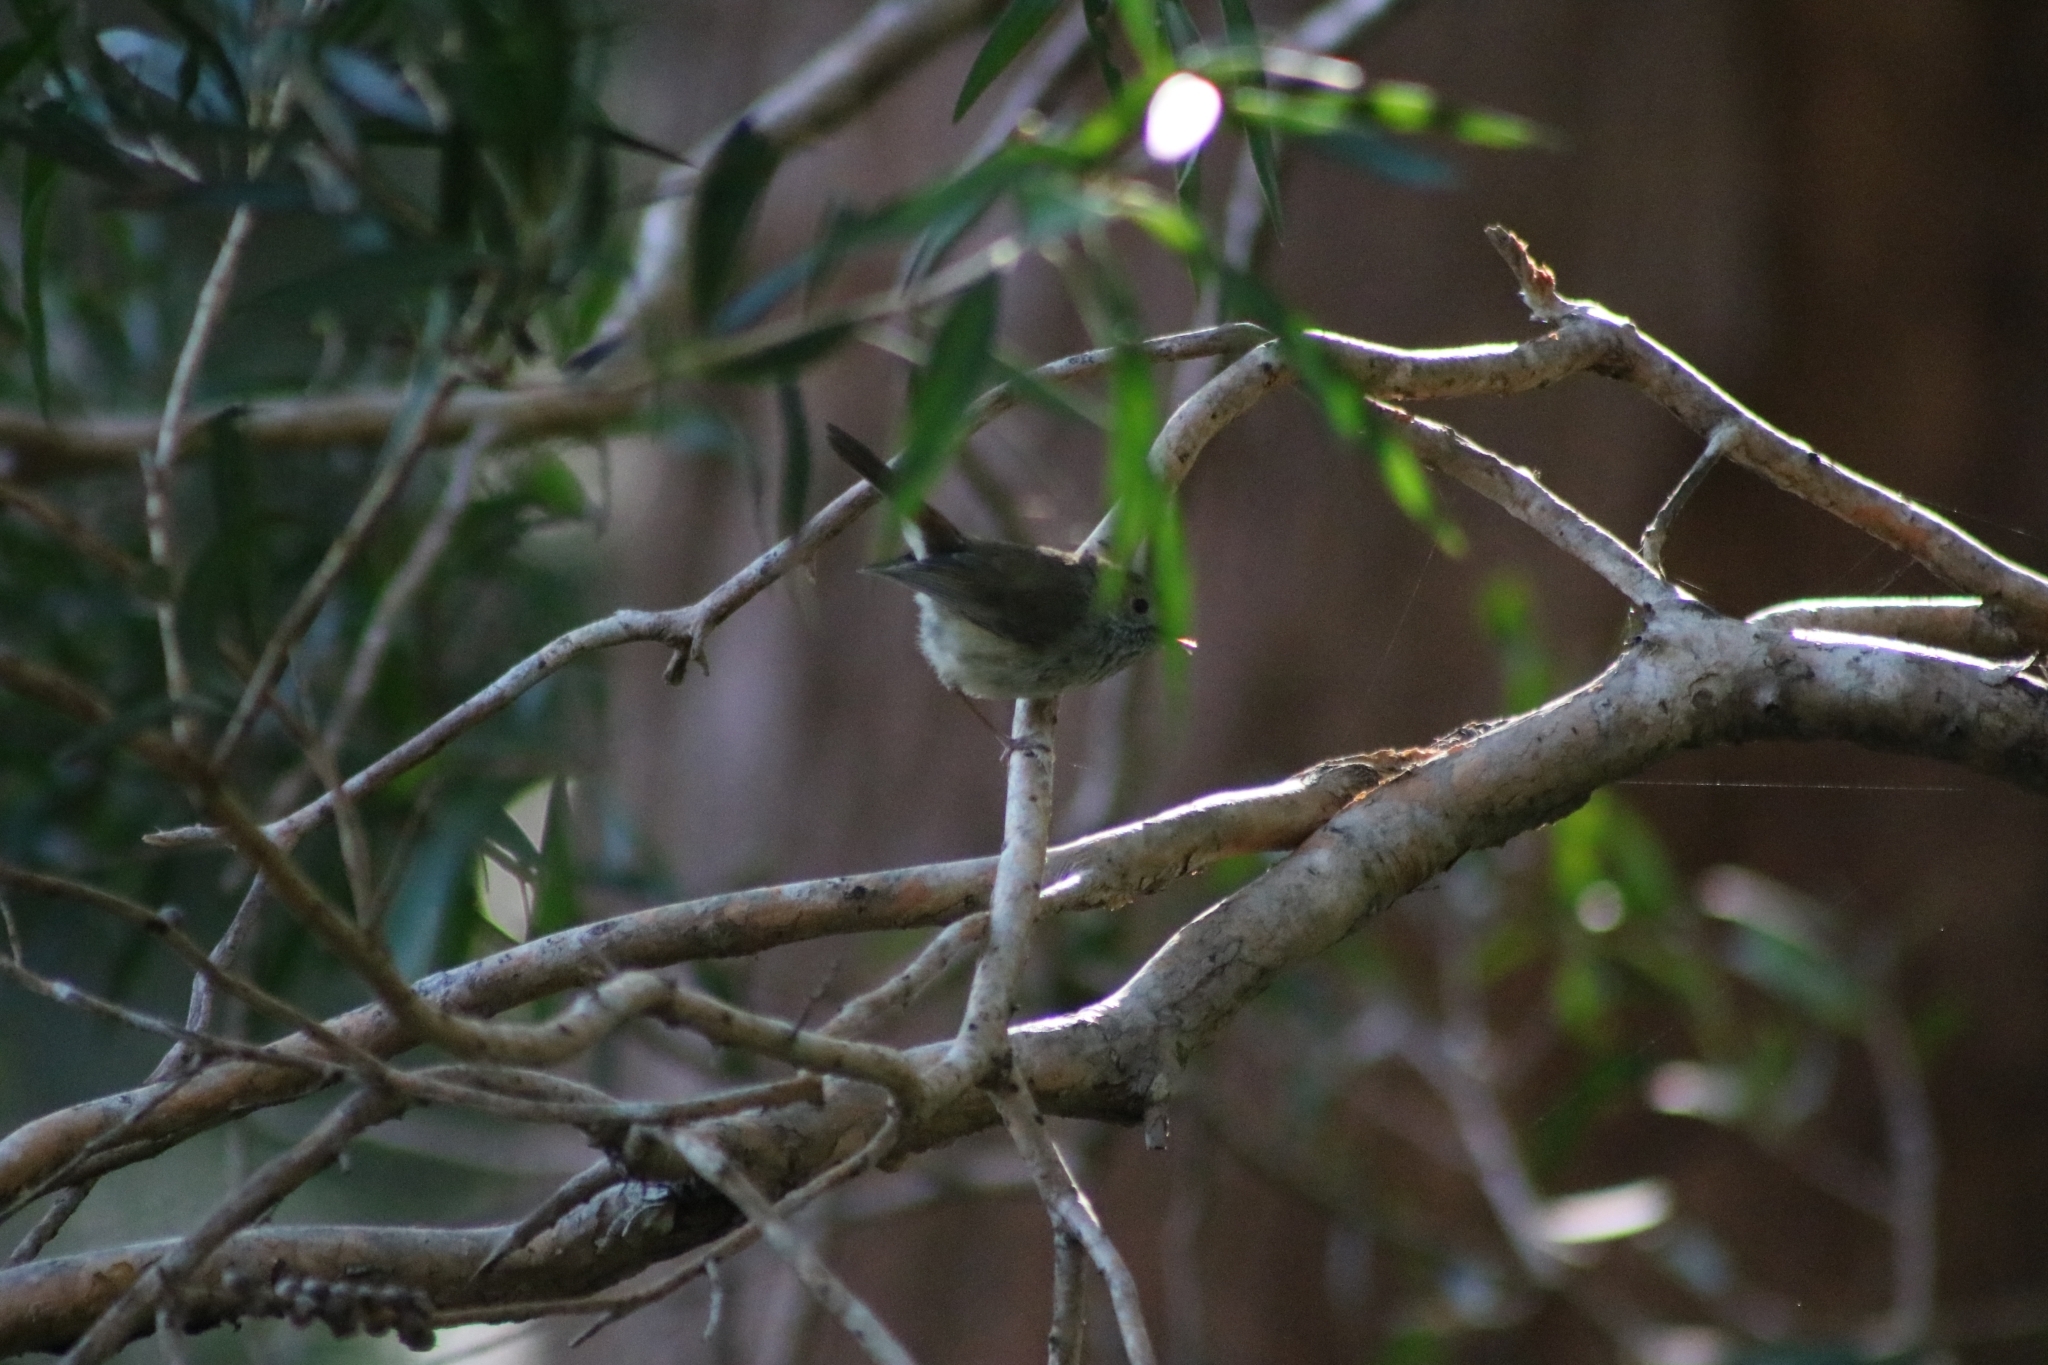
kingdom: Animalia
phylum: Chordata
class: Aves
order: Passeriformes
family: Acanthizidae
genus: Acanthiza
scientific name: Acanthiza pusilla
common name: Brown thornbill
